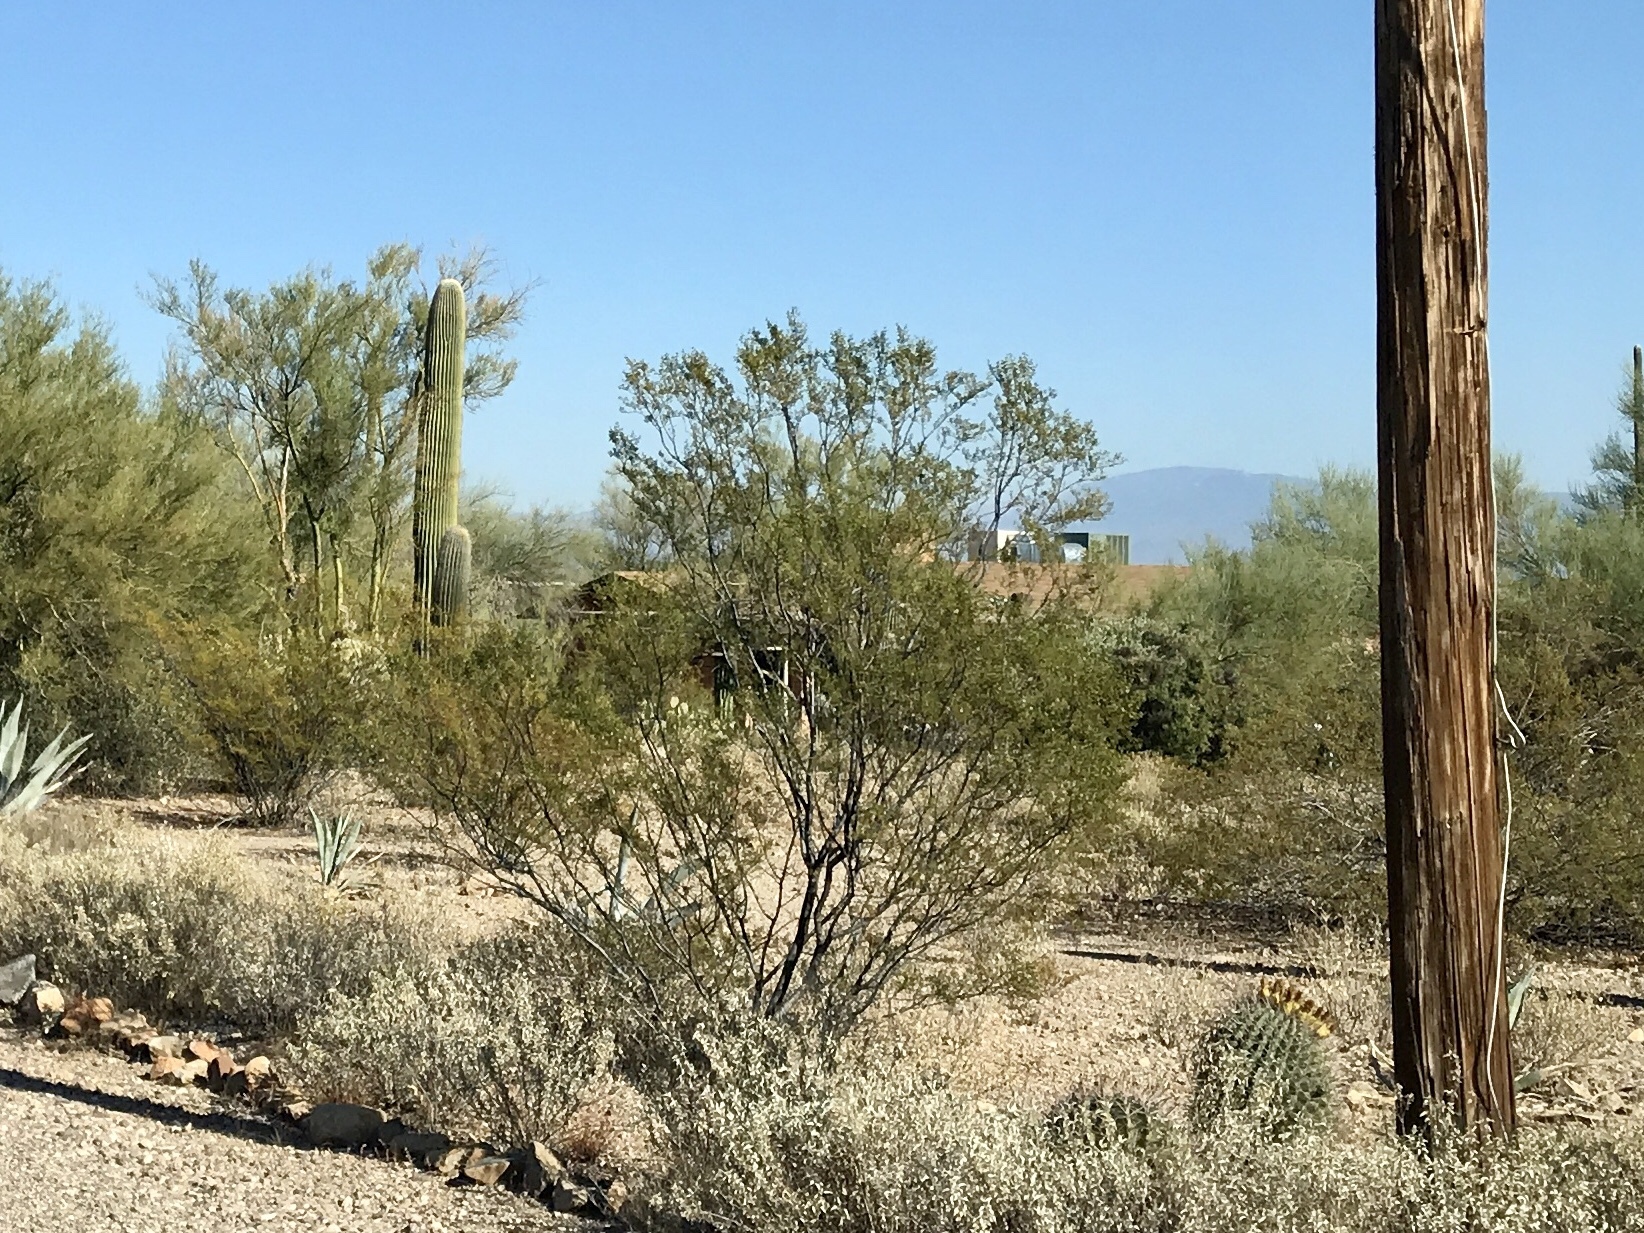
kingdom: Plantae
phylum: Tracheophyta
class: Magnoliopsida
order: Zygophyllales
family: Zygophyllaceae
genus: Larrea
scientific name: Larrea tridentata
